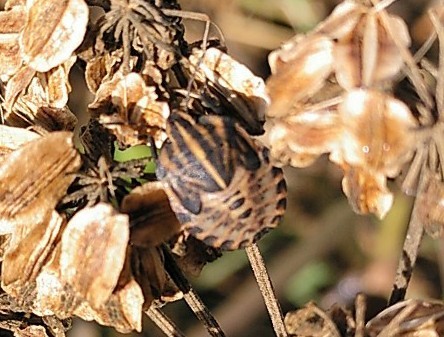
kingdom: Animalia
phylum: Arthropoda
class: Insecta
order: Hemiptera
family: Pentatomidae
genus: Graphosoma
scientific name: Graphosoma italicum
